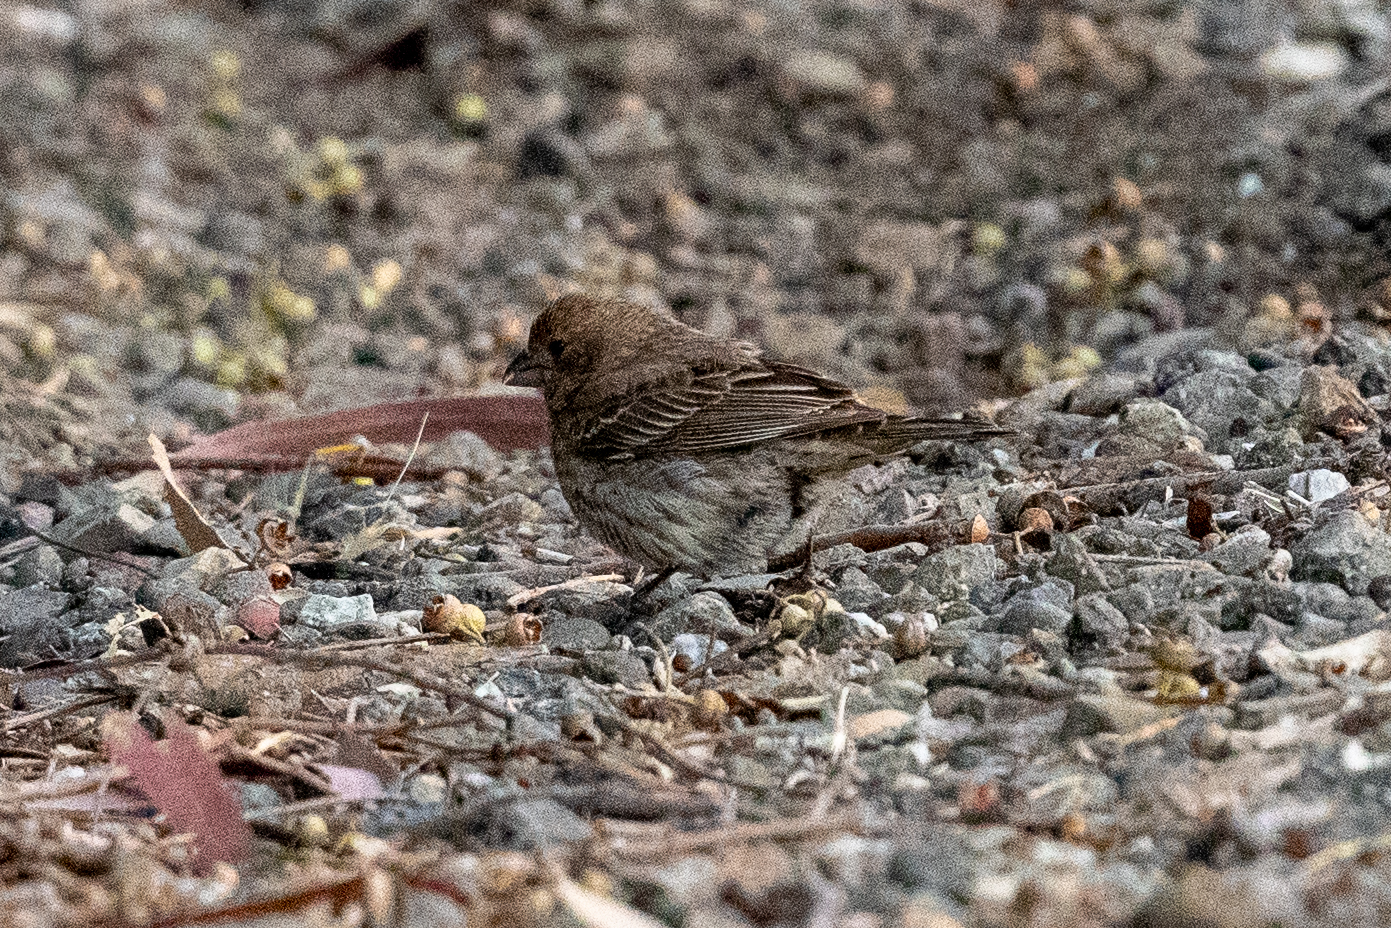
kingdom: Animalia
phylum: Chordata
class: Aves
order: Passeriformes
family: Fringillidae
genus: Haemorhous
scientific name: Haemorhous mexicanus
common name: House finch
